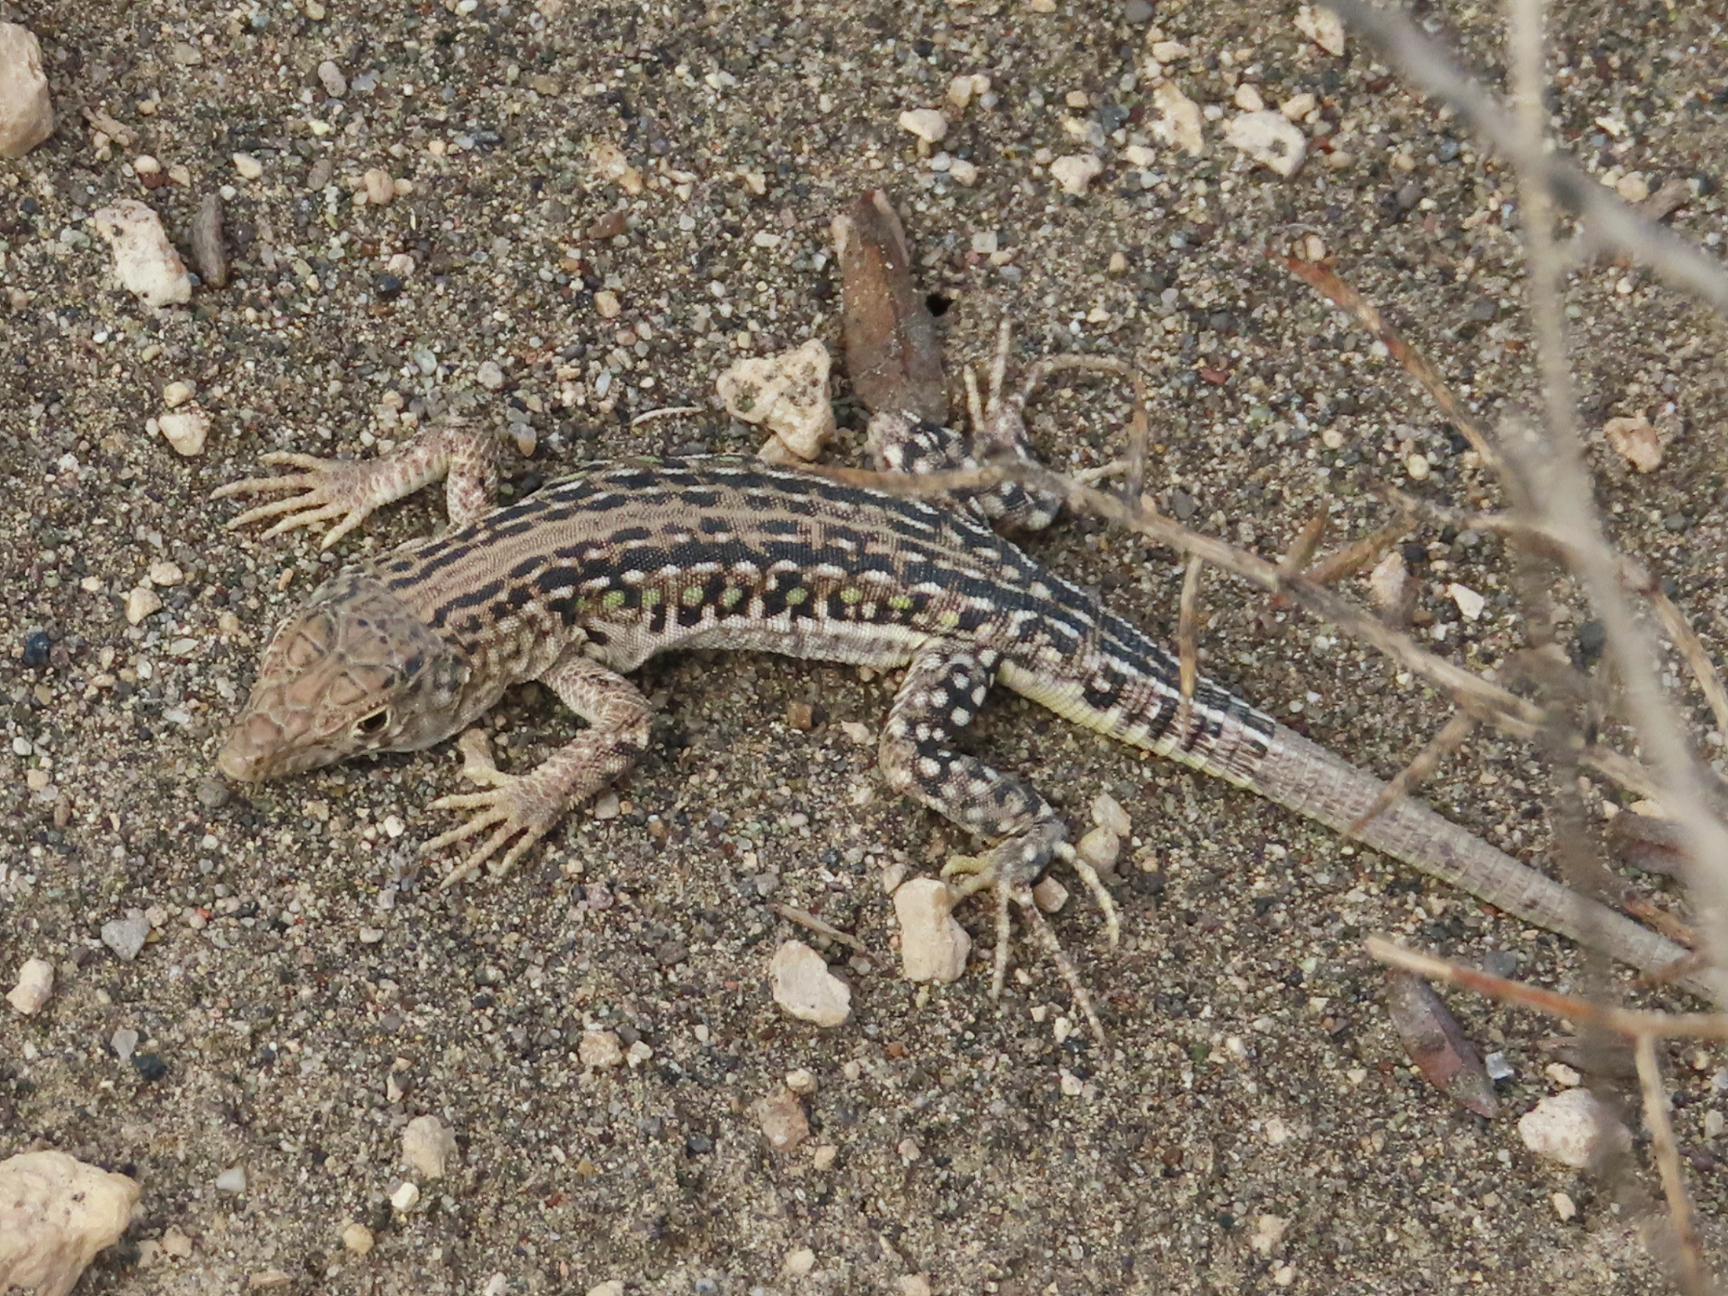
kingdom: Animalia
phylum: Chordata
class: Squamata
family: Lacertidae
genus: Eremias
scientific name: Eremias strauchi
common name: Strauch's racerunner
